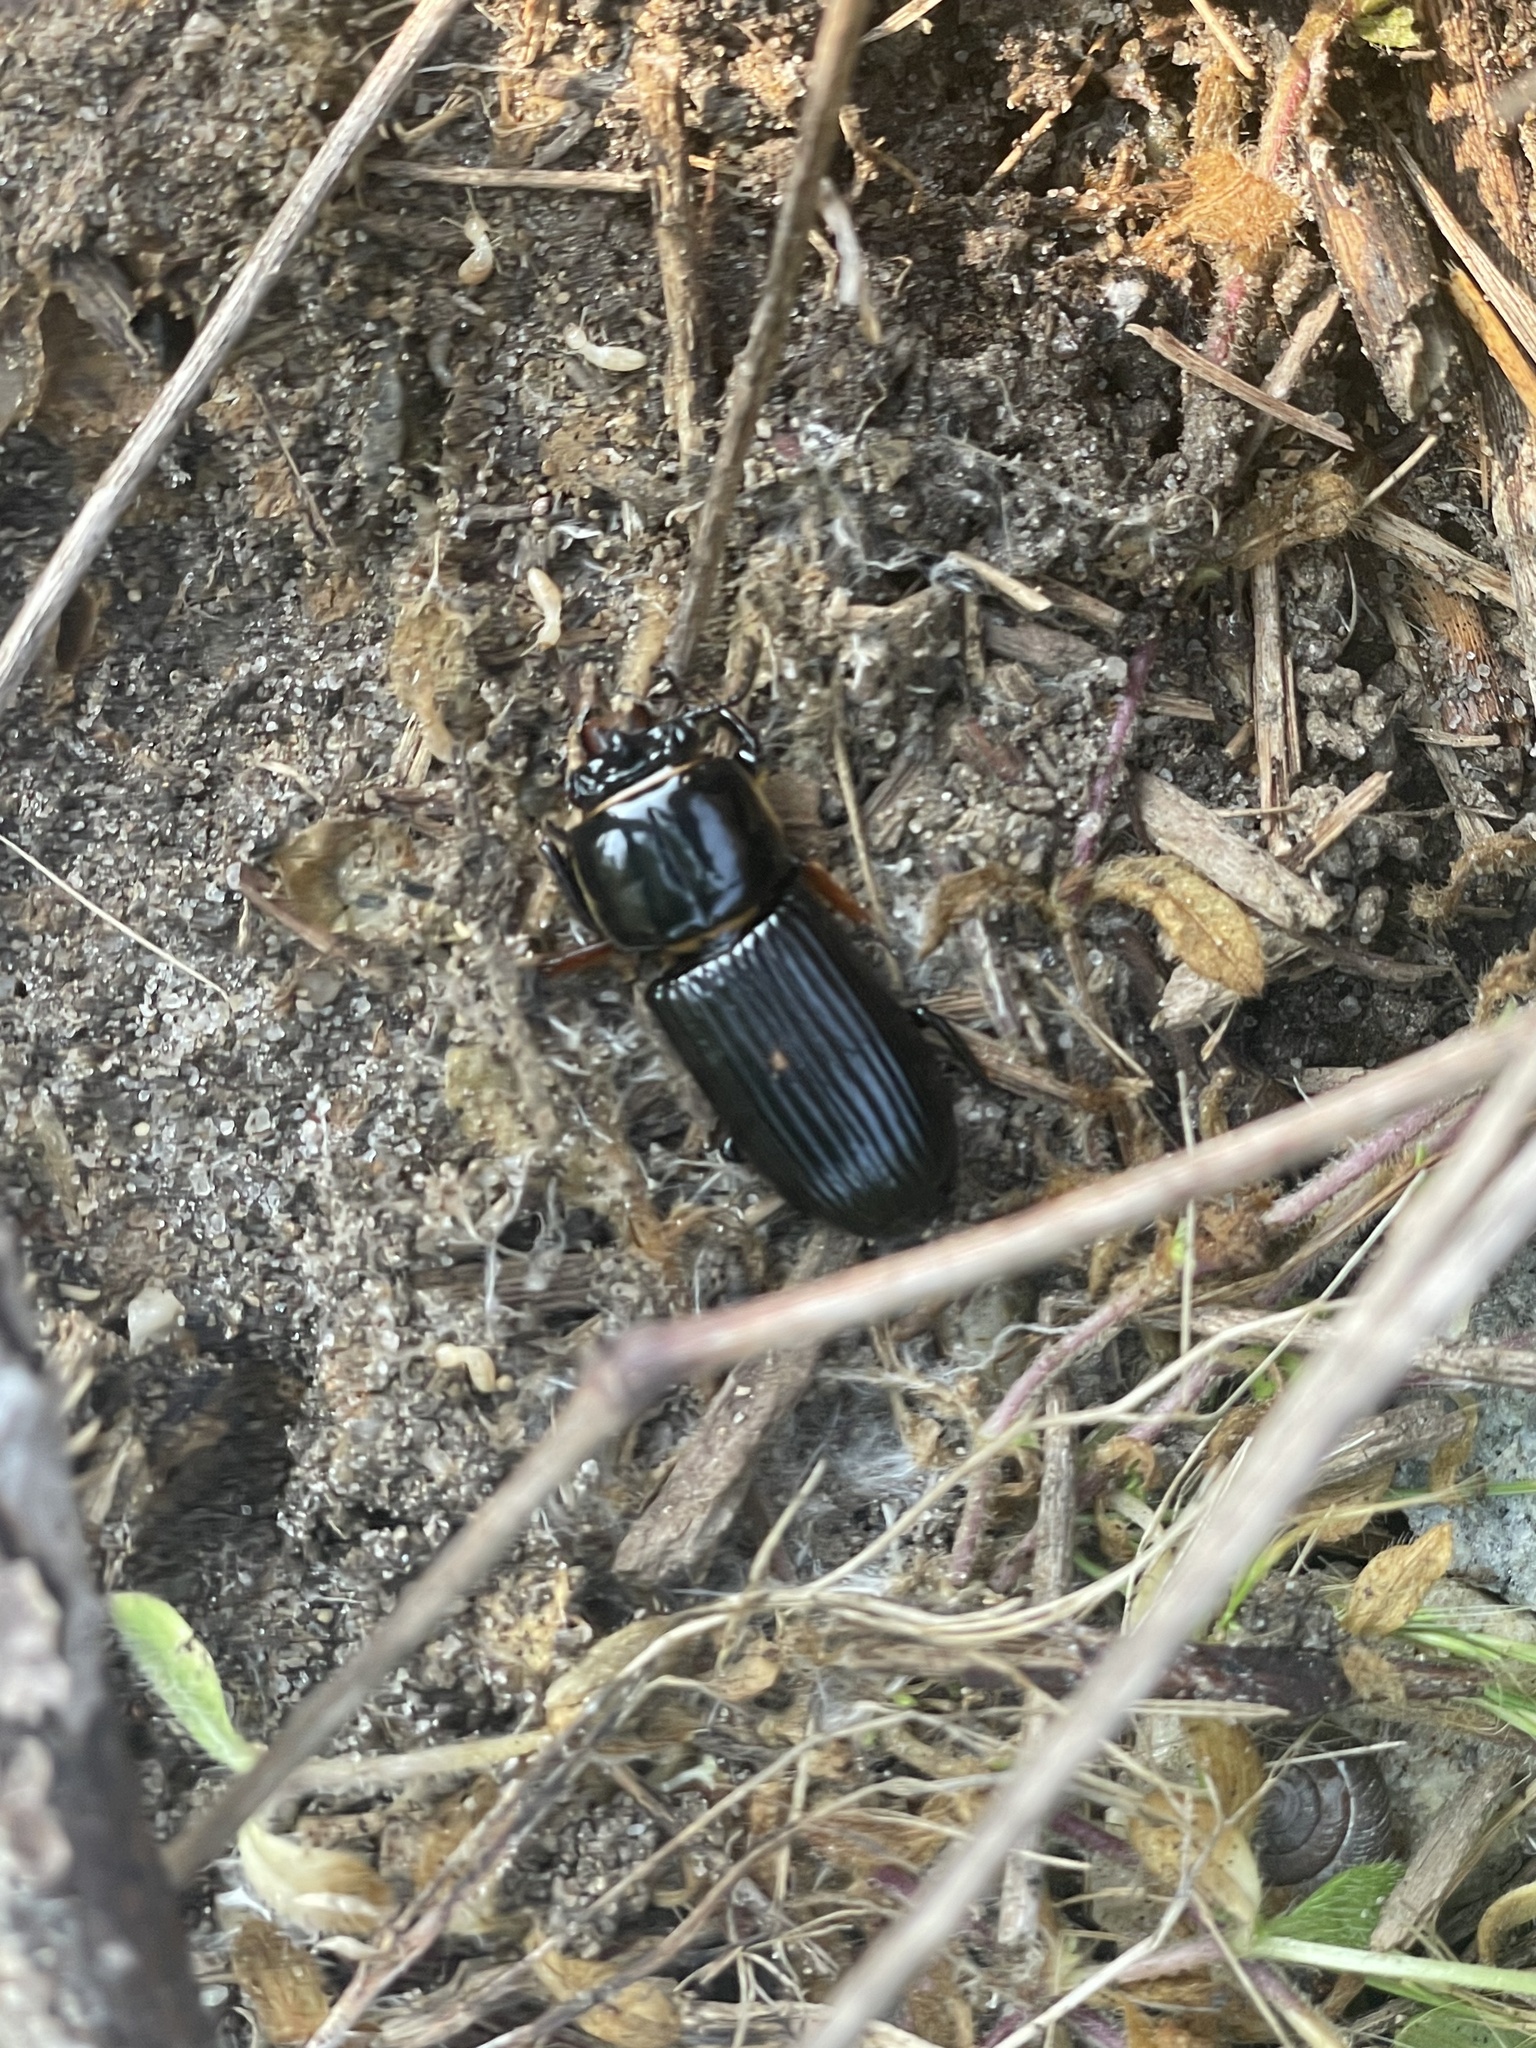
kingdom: Animalia
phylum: Arthropoda
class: Insecta
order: Coleoptera
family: Passalidae
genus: Odontotaenius
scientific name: Odontotaenius disjunctus
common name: Patent leather beetle
